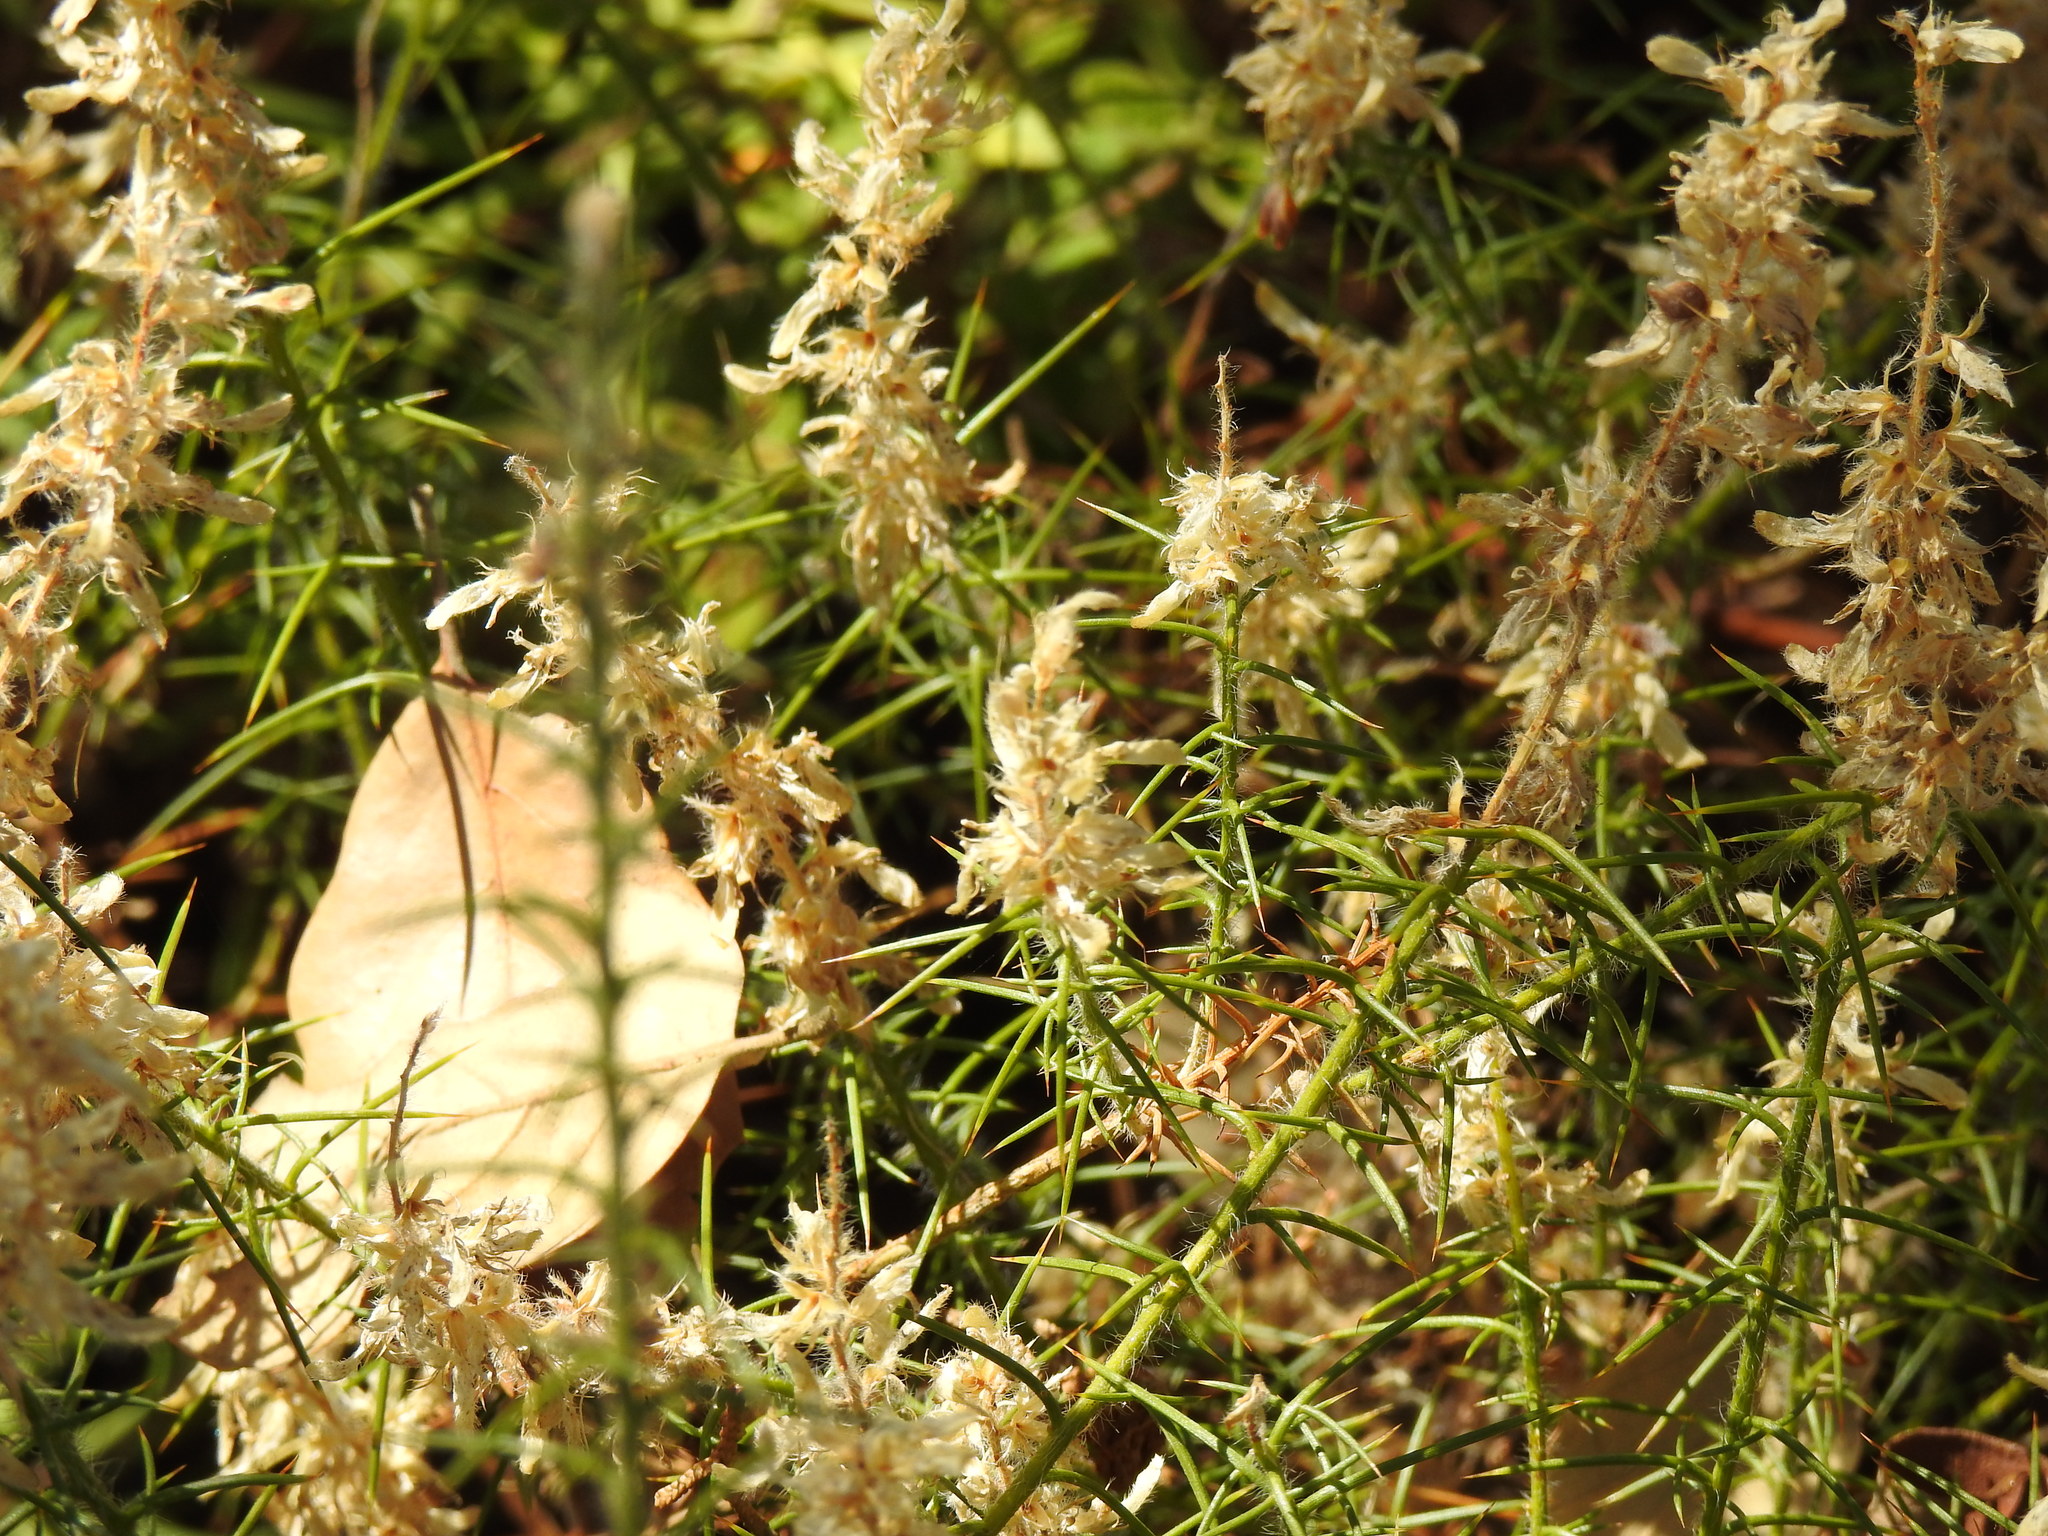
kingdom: Plantae
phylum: Tracheophyta
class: Magnoliopsida
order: Fabales
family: Fabaceae
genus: Genista
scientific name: Genista hirsuta
